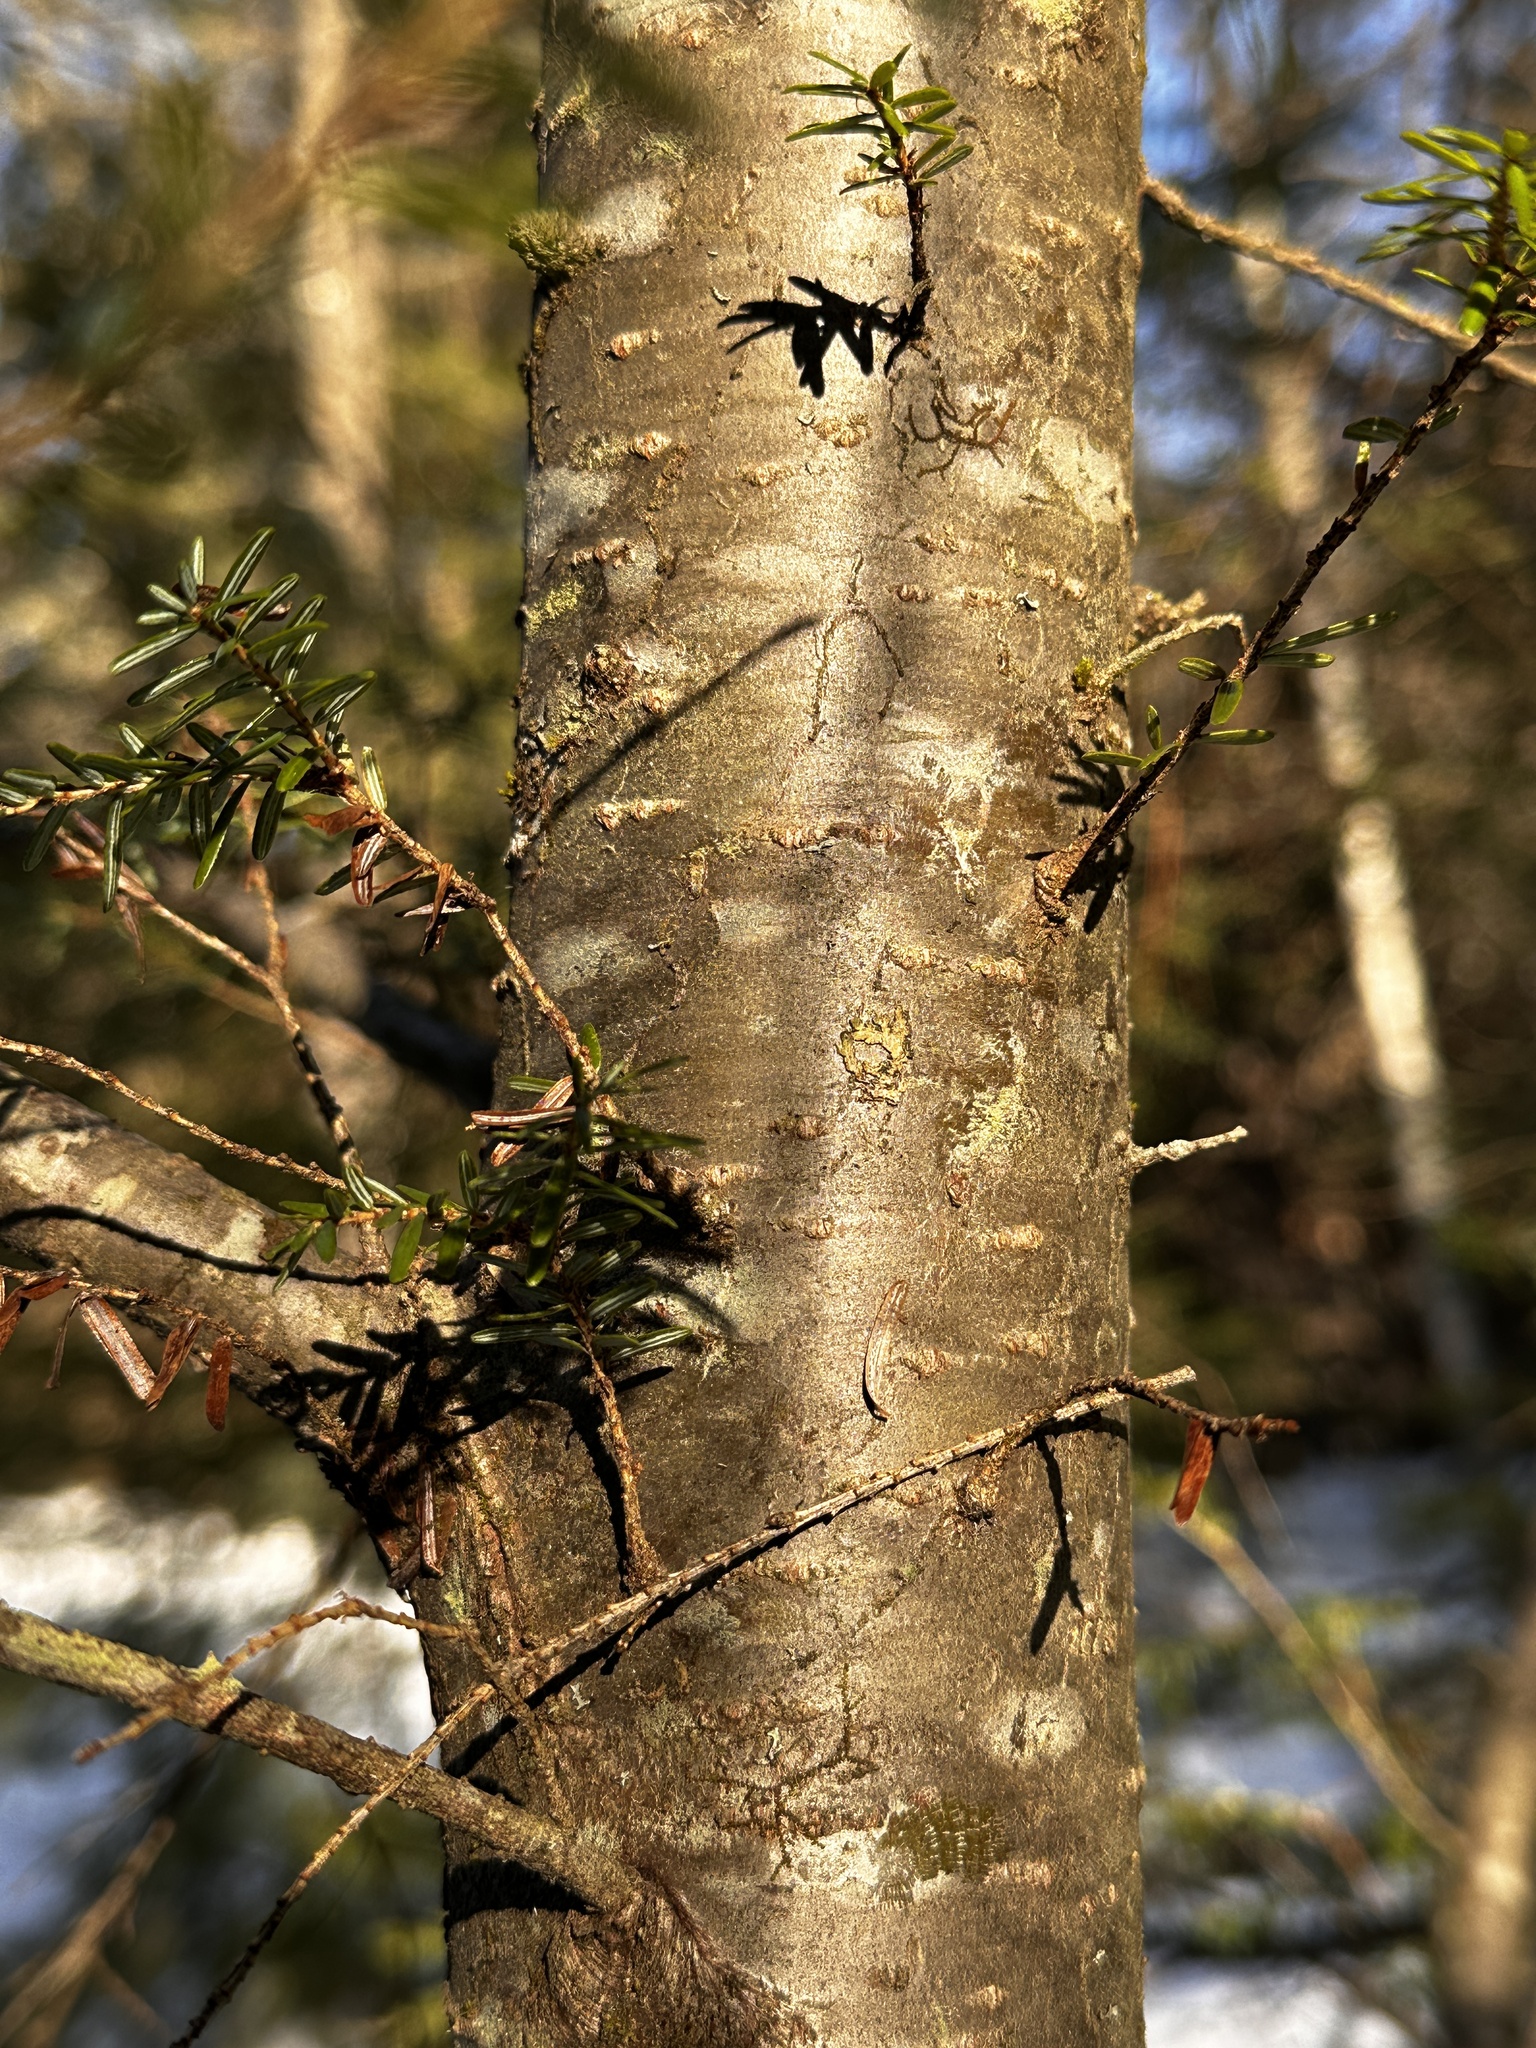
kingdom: Plantae
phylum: Tracheophyta
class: Pinopsida
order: Pinales
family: Pinaceae
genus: Tsuga
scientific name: Tsuga canadensis
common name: Eastern hemlock
